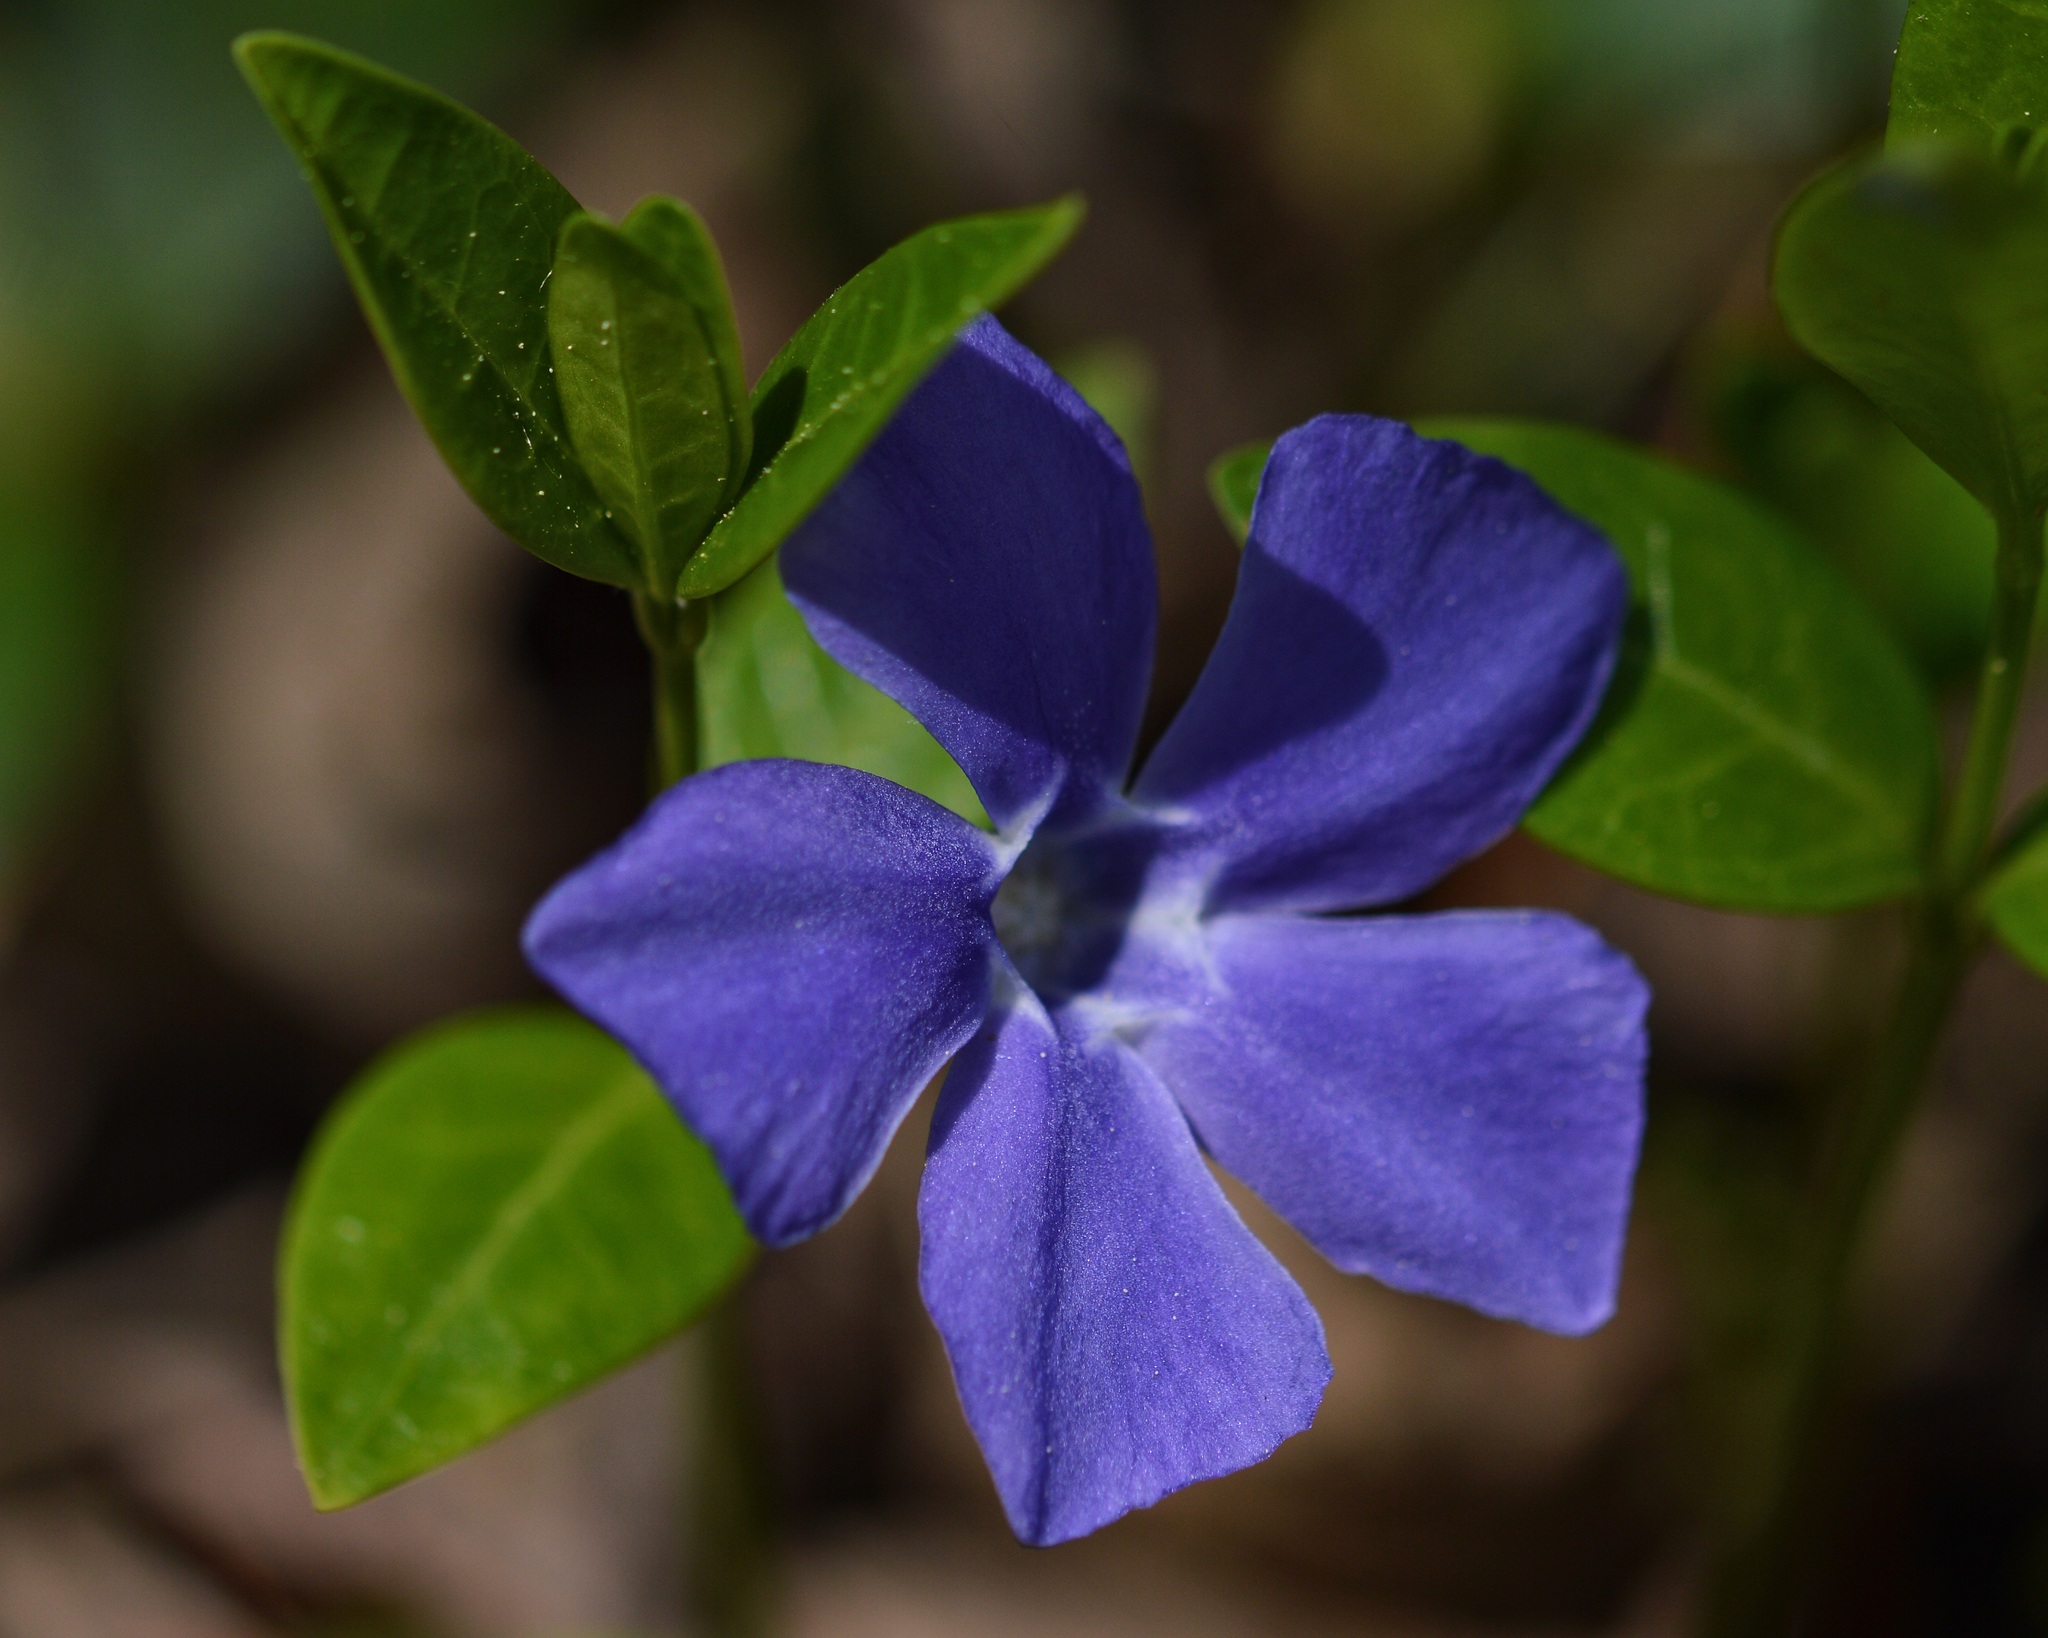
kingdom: Plantae
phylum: Tracheophyta
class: Magnoliopsida
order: Gentianales
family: Apocynaceae
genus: Vinca
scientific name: Vinca minor
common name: Lesser periwinkle
